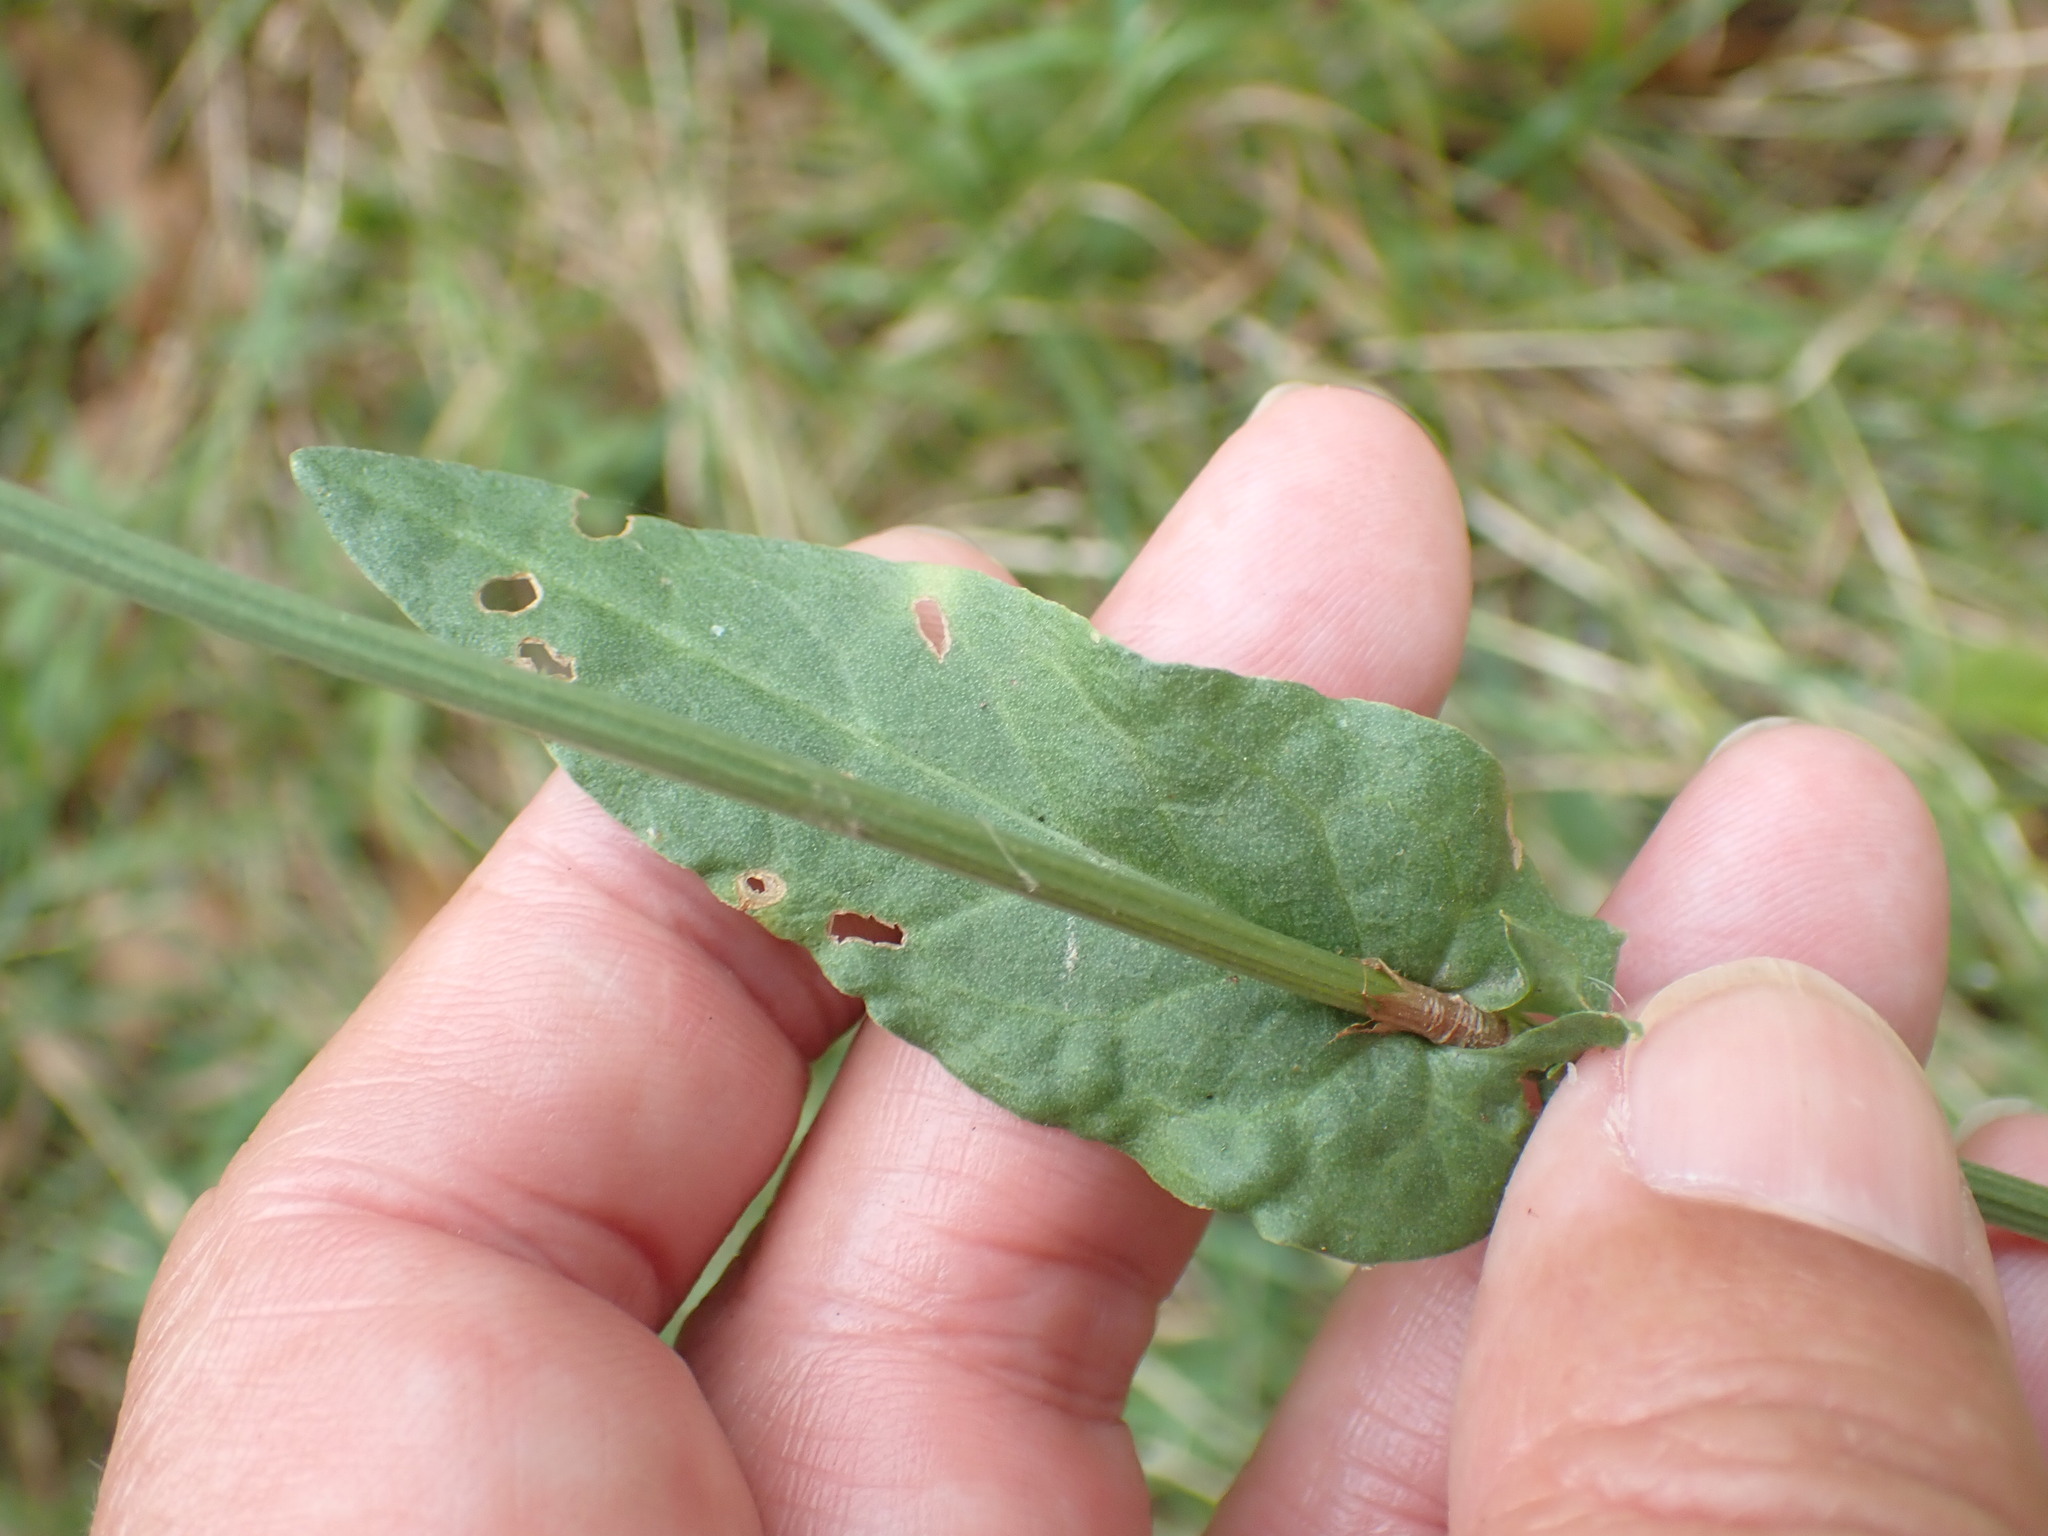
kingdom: Plantae
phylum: Tracheophyta
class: Magnoliopsida
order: Caryophyllales
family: Polygonaceae
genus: Rumex
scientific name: Rumex acetosa
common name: Garden sorrel
